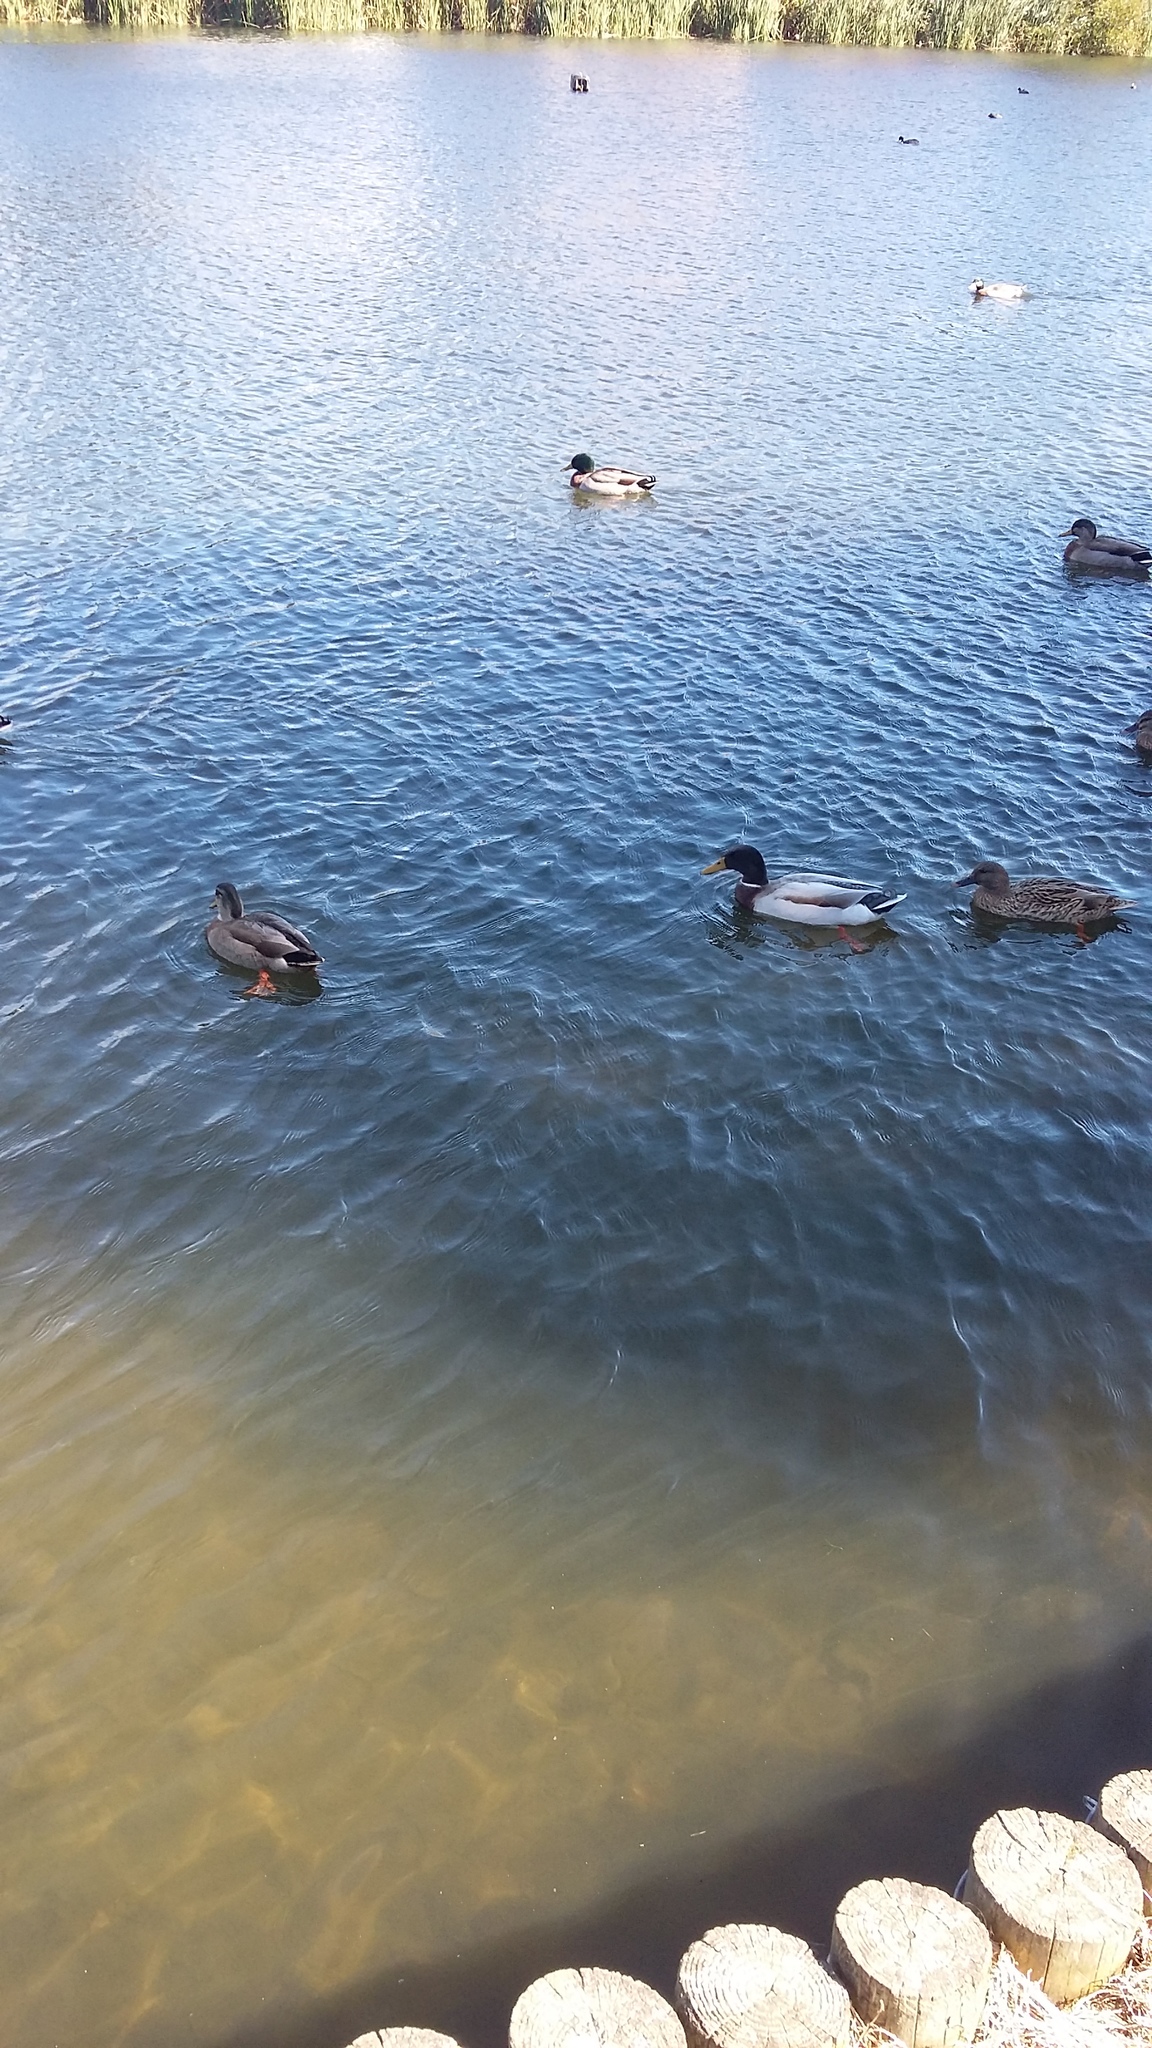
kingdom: Animalia
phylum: Chordata
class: Aves
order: Anseriformes
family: Anatidae
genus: Anas
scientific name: Anas platyrhynchos
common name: Mallard
